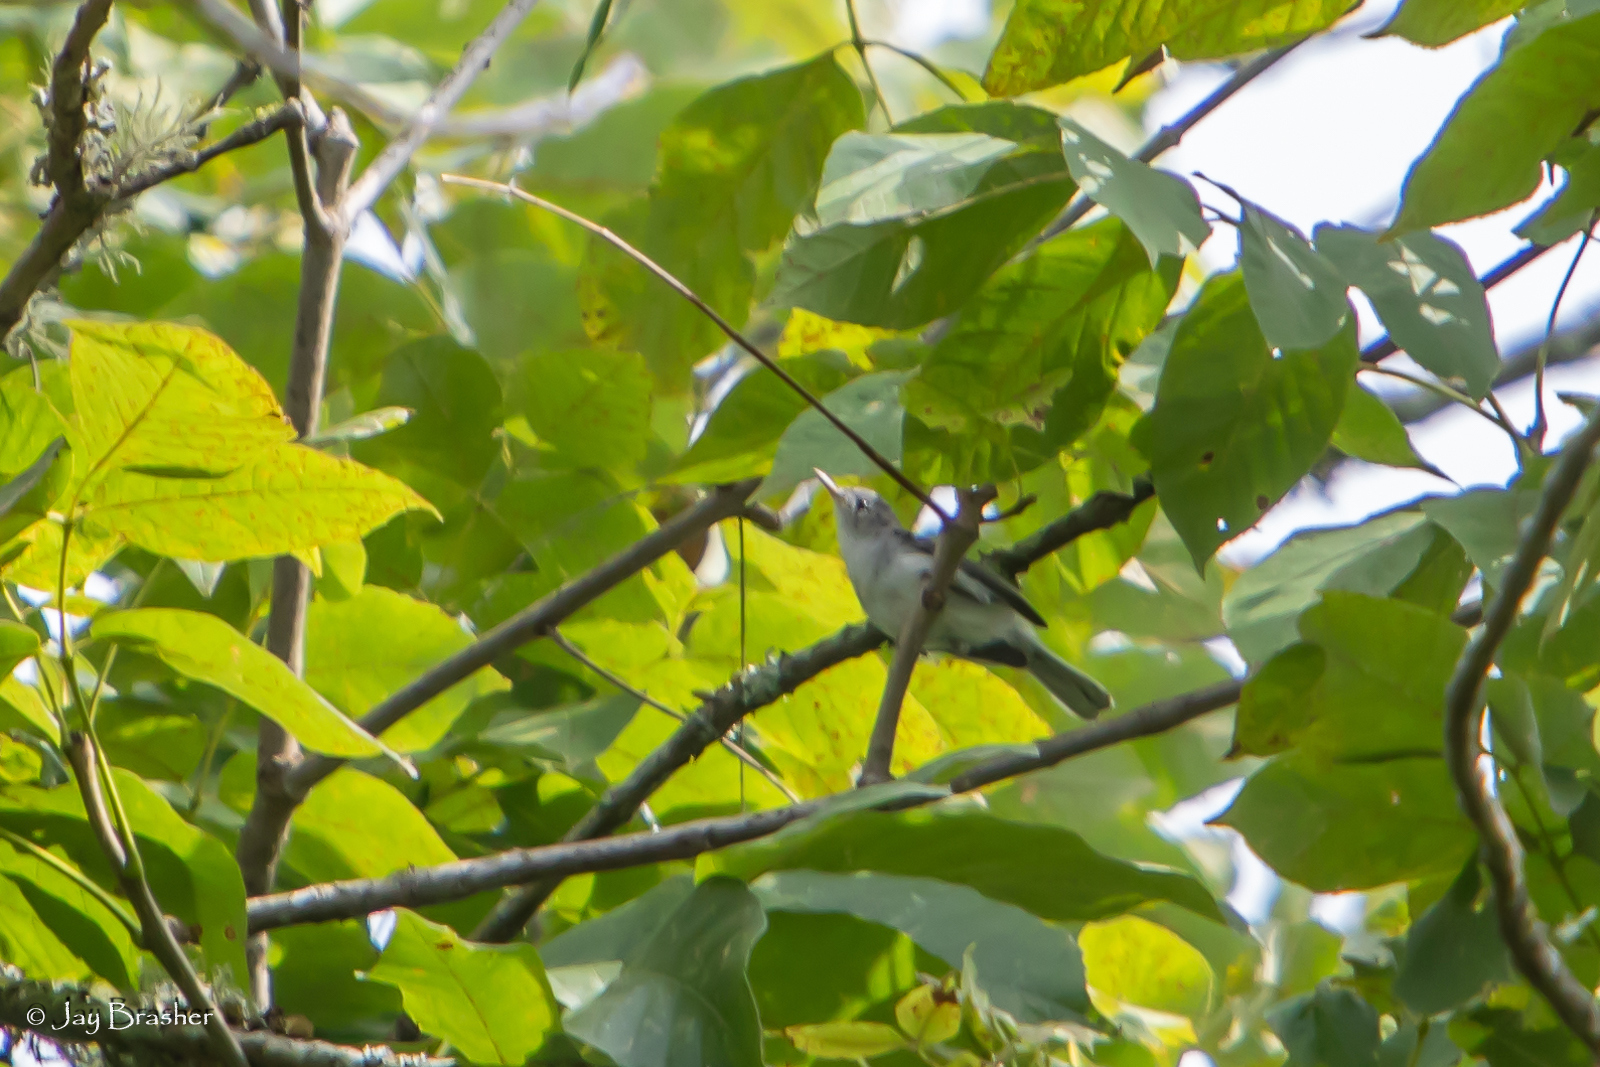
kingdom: Animalia
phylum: Chordata
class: Aves
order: Passeriformes
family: Polioptilidae
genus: Polioptila
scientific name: Polioptila caerulea
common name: Blue-gray gnatcatcher
